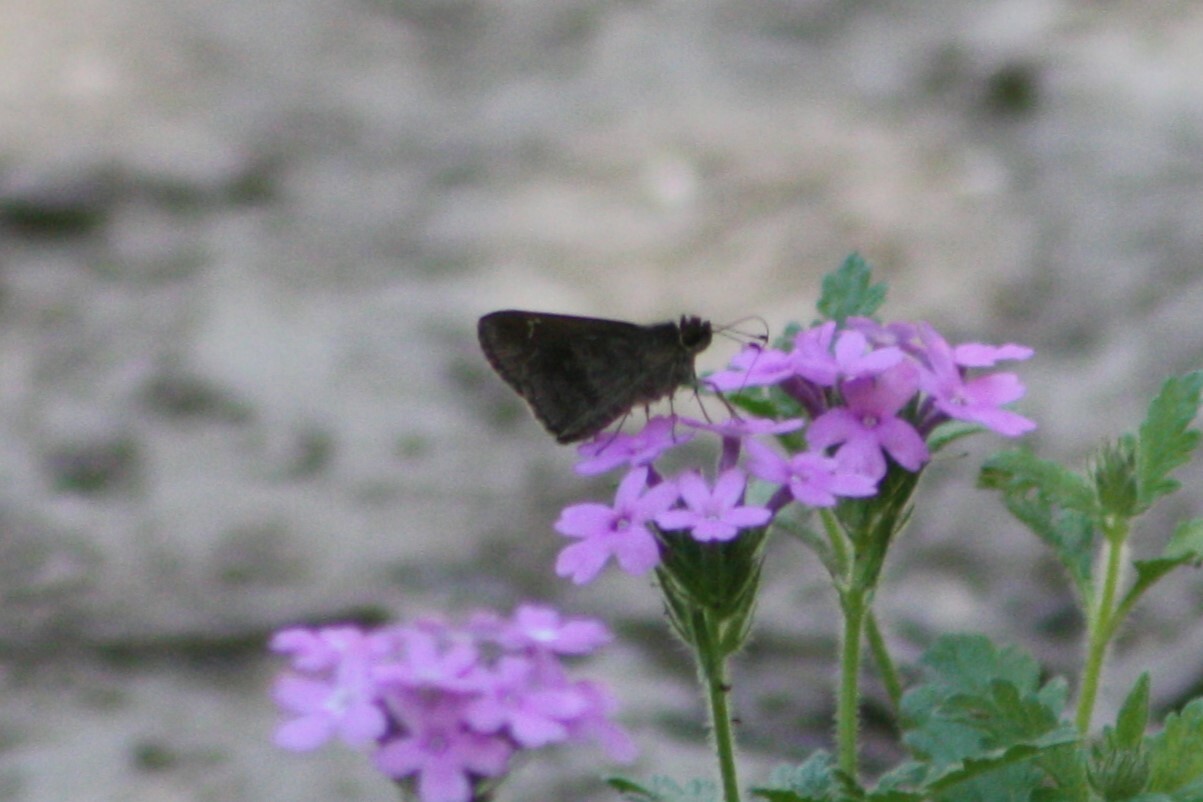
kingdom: Animalia
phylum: Arthropoda
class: Insecta
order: Lepidoptera
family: Hesperiidae
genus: Cymaenes
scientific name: Cymaenes
